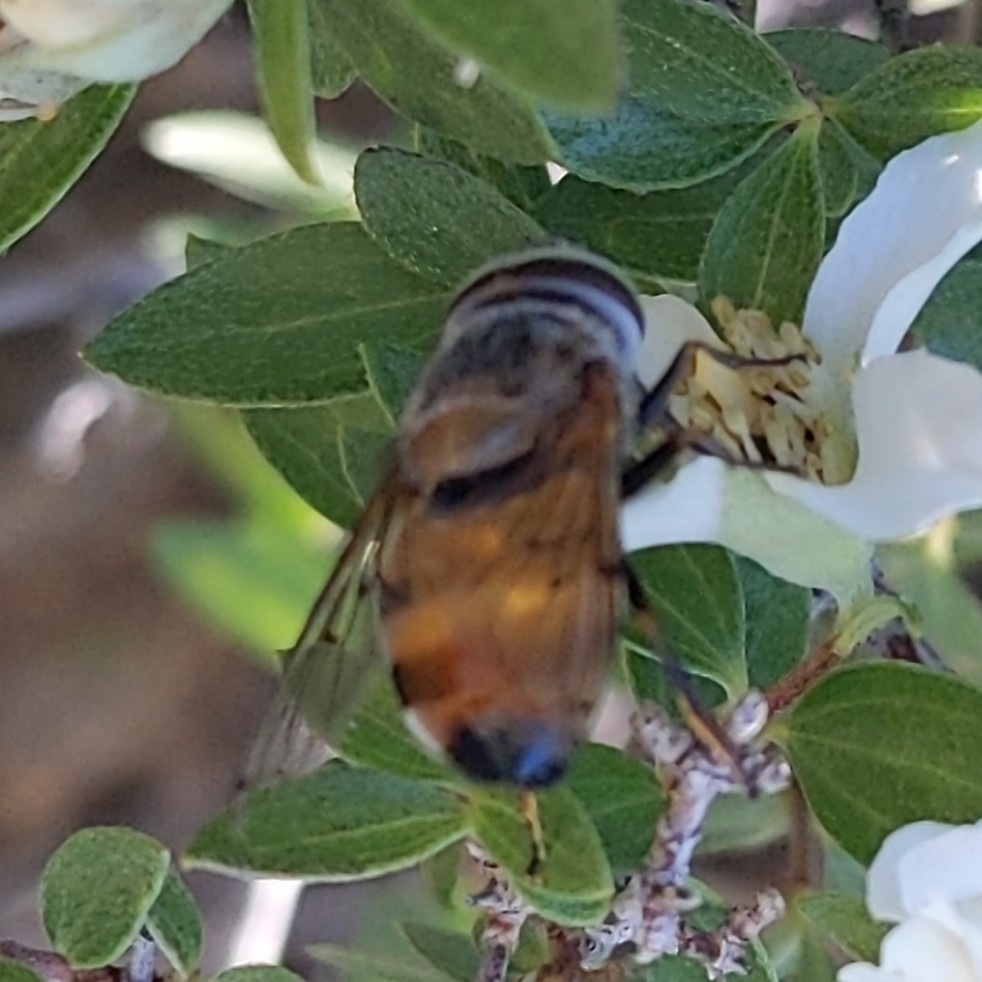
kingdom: Animalia
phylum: Arthropoda
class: Insecta
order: Diptera
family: Syrphidae
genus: Copestylum
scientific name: Copestylum haagii
